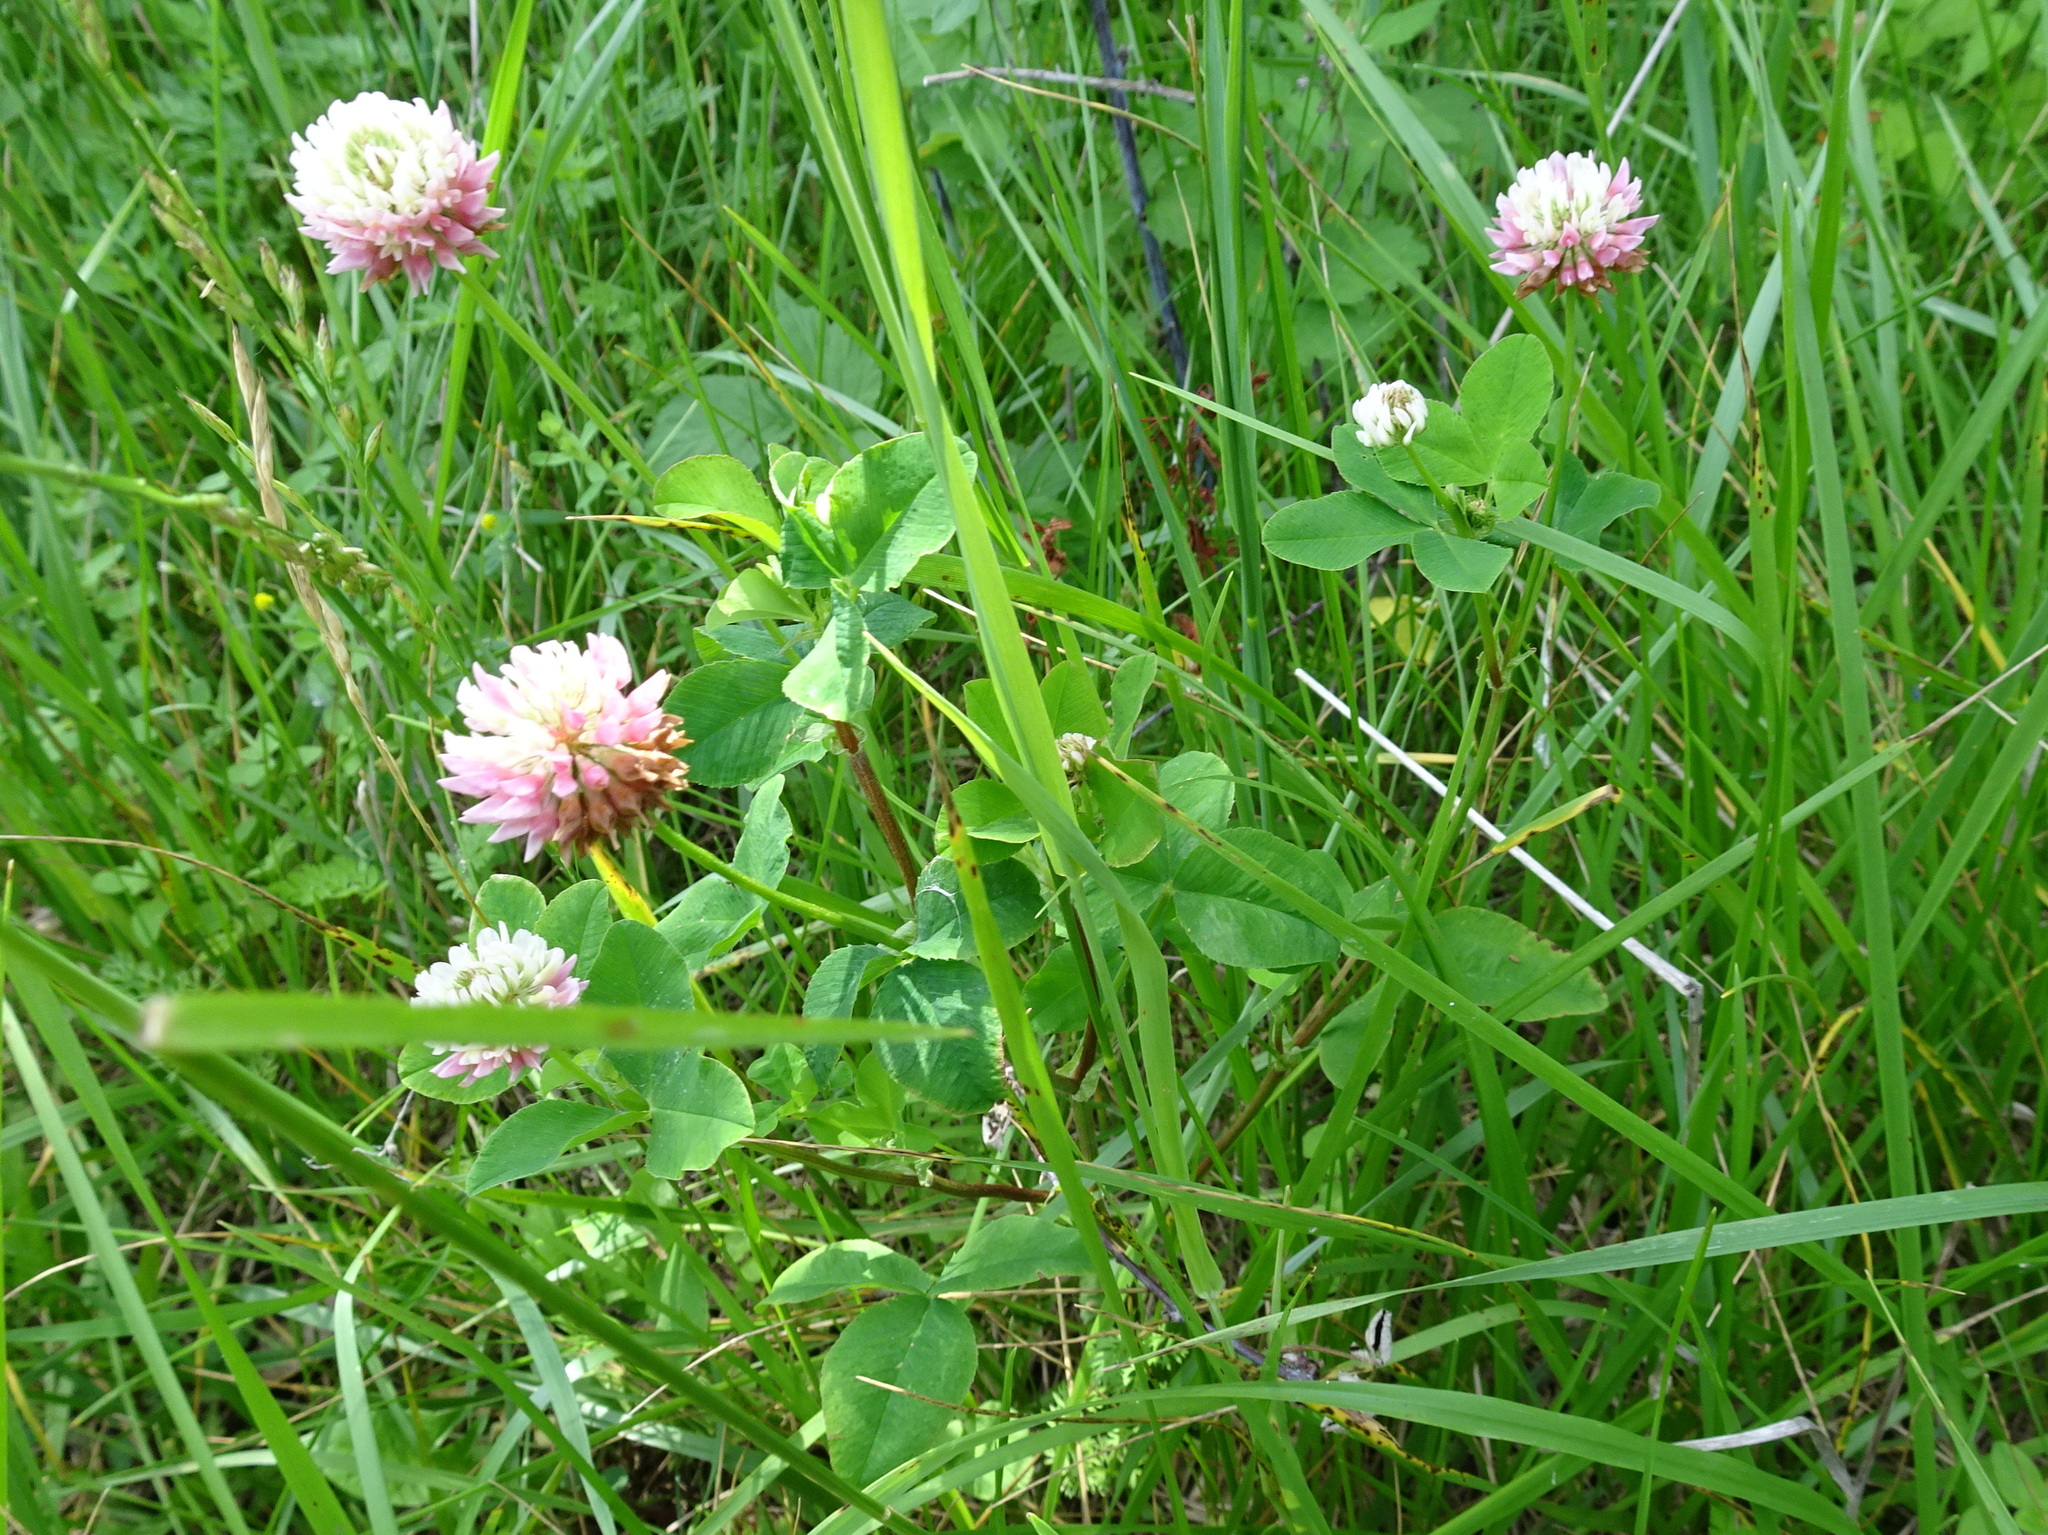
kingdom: Plantae
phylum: Tracheophyta
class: Magnoliopsida
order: Fabales
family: Fabaceae
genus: Trifolium
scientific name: Trifolium hybridum
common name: Alsike clover
